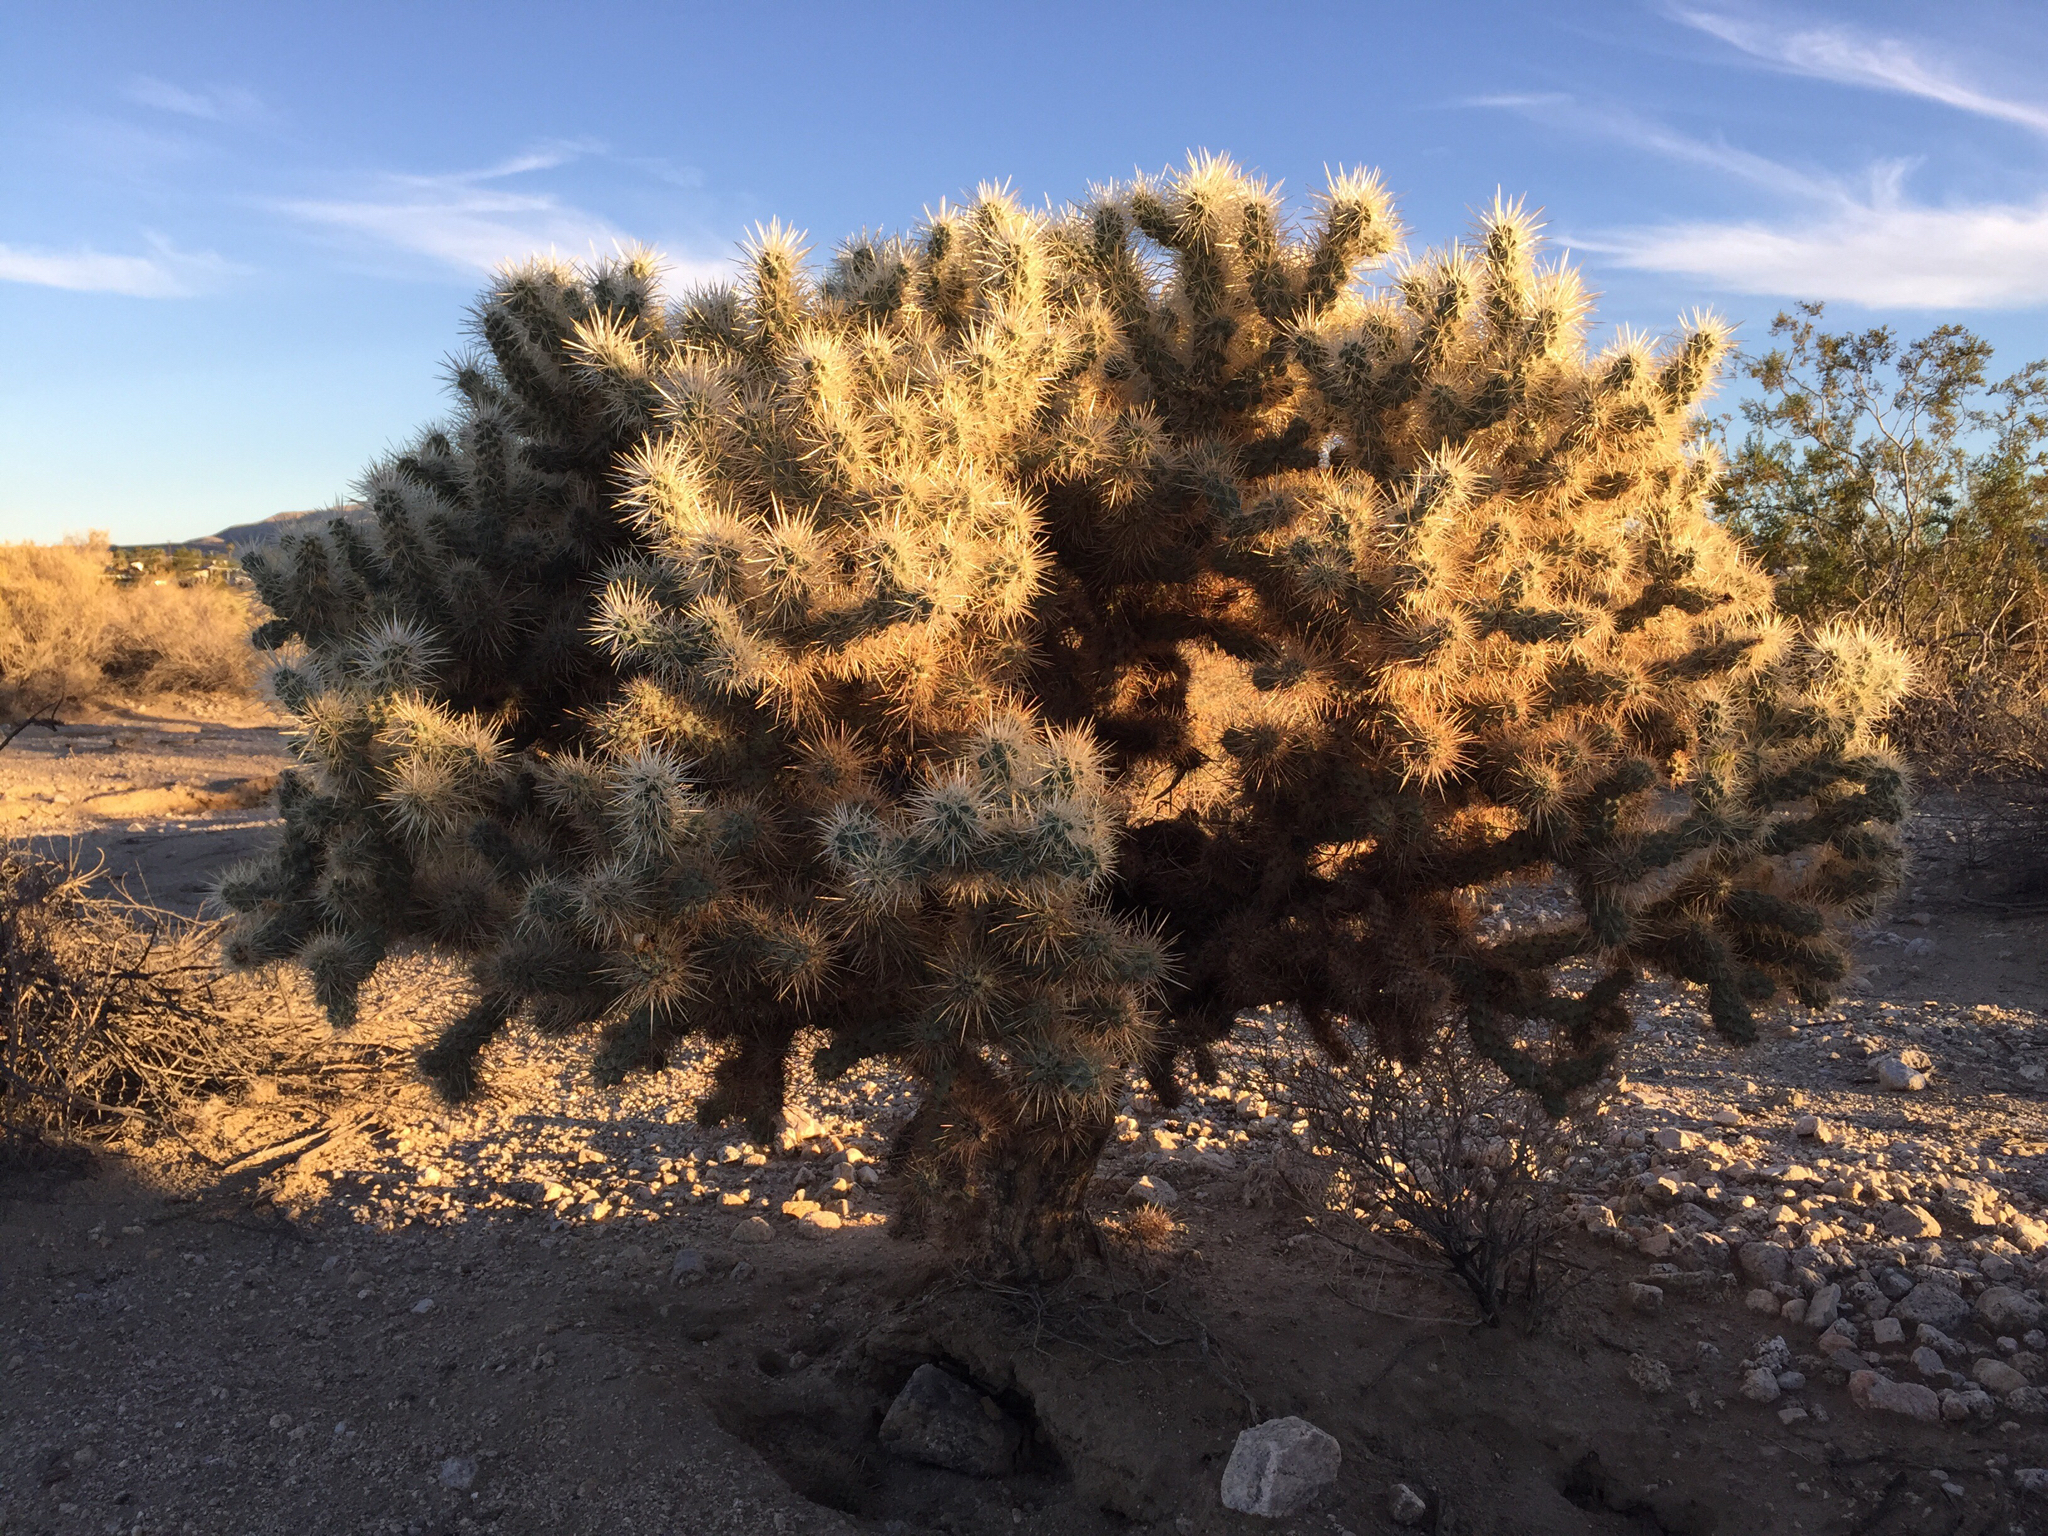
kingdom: Plantae
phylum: Tracheophyta
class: Magnoliopsida
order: Caryophyllales
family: Cactaceae
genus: Cylindropuntia
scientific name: Cylindropuntia echinocarpa
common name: Ground cholla
